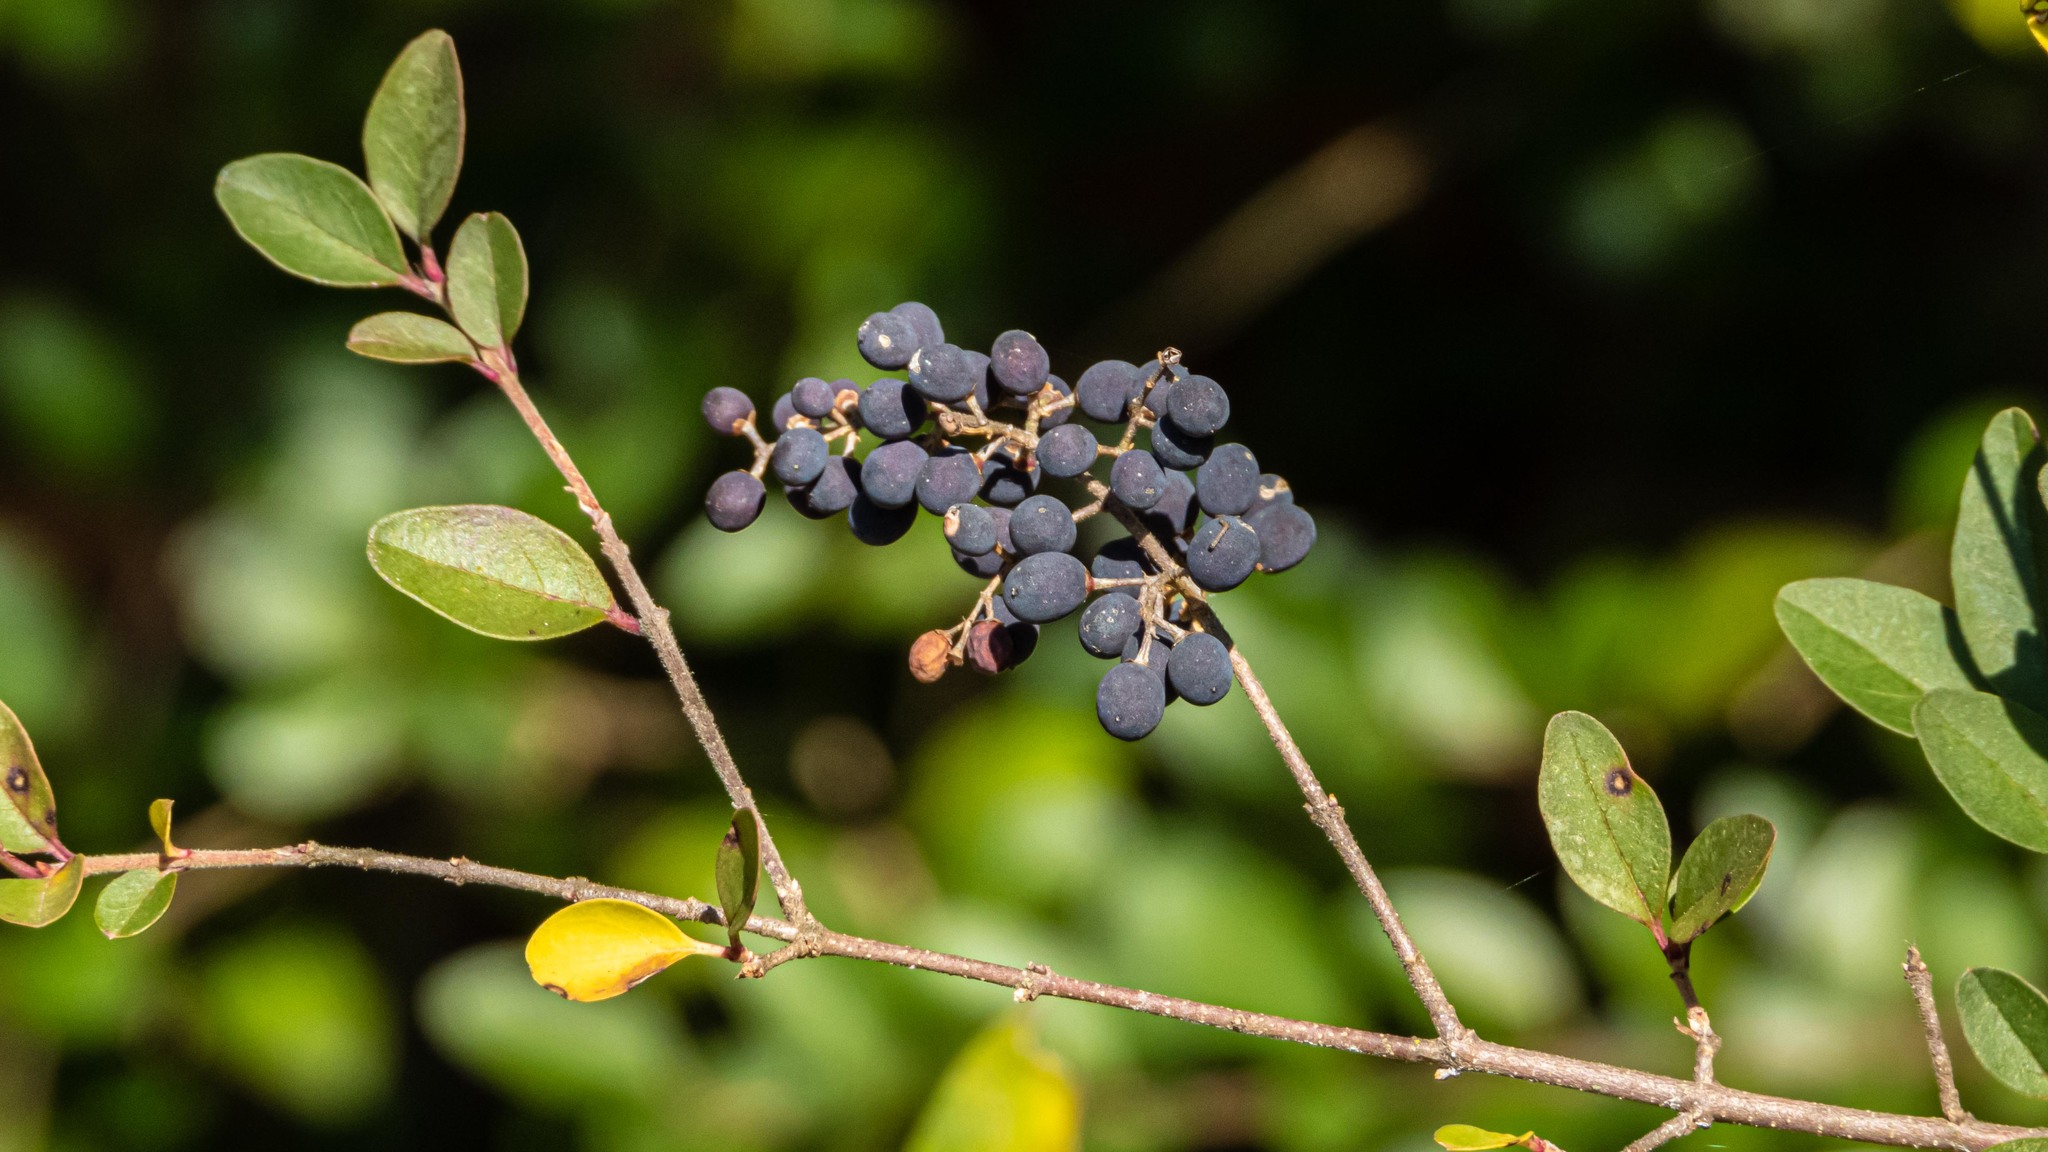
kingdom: Plantae
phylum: Tracheophyta
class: Magnoliopsida
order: Lamiales
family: Oleaceae
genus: Ligustrum
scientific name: Ligustrum sinense
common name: Chinese privet
